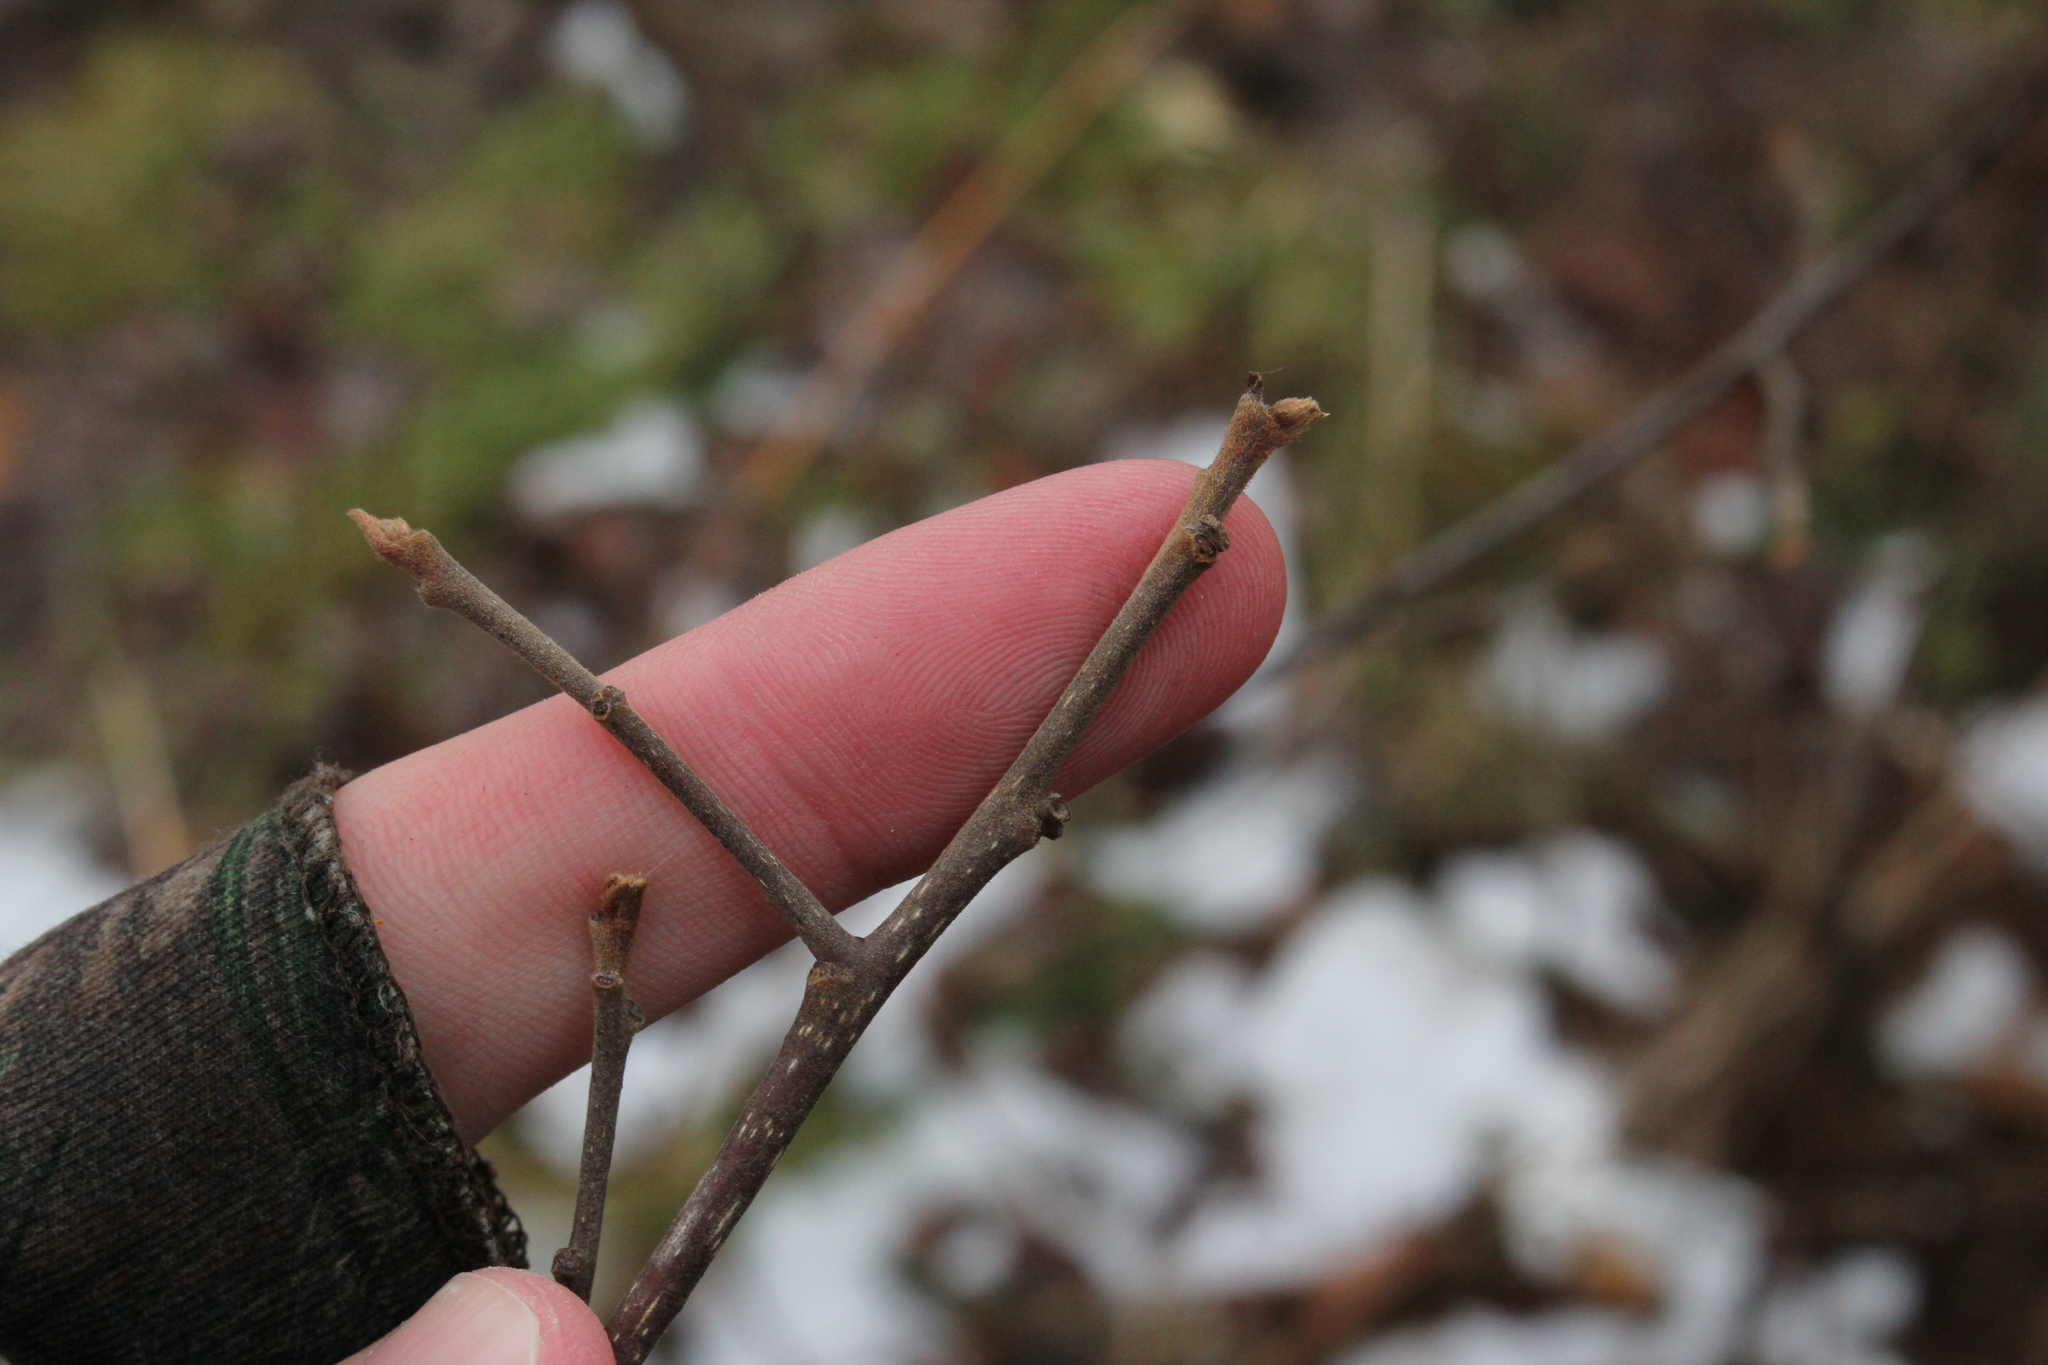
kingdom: Plantae
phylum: Tracheophyta
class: Magnoliopsida
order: Rosales
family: Rhamnaceae
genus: Frangula
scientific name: Frangula alnus
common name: Alder buckthorn
